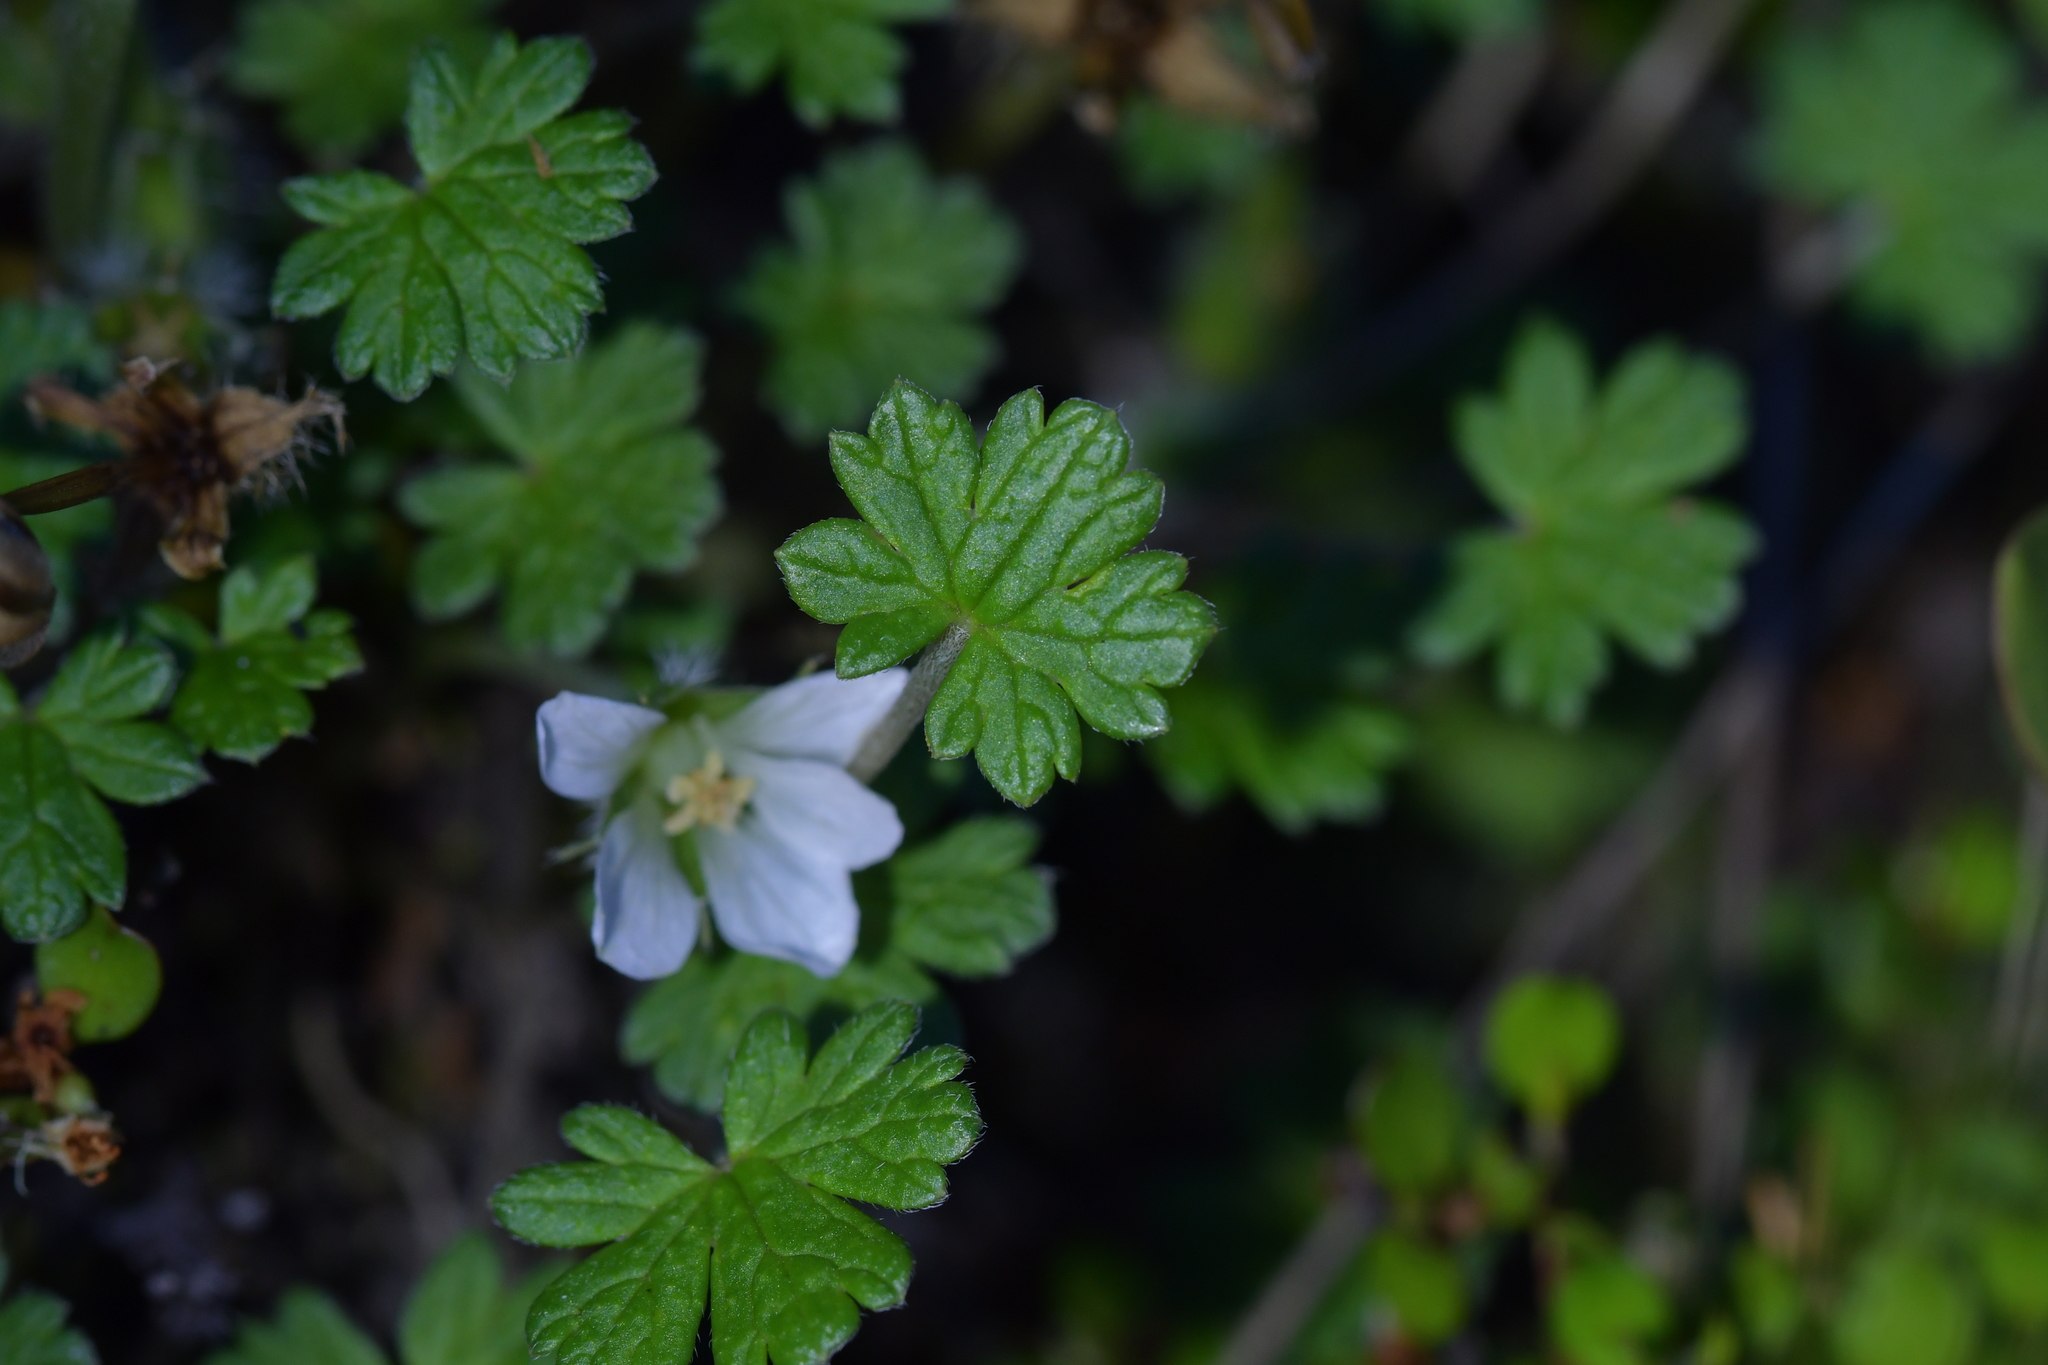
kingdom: Plantae
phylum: Tracheophyta
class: Magnoliopsida
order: Geraniales
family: Geraniaceae
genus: Geranium
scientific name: Geranium brevicaule
